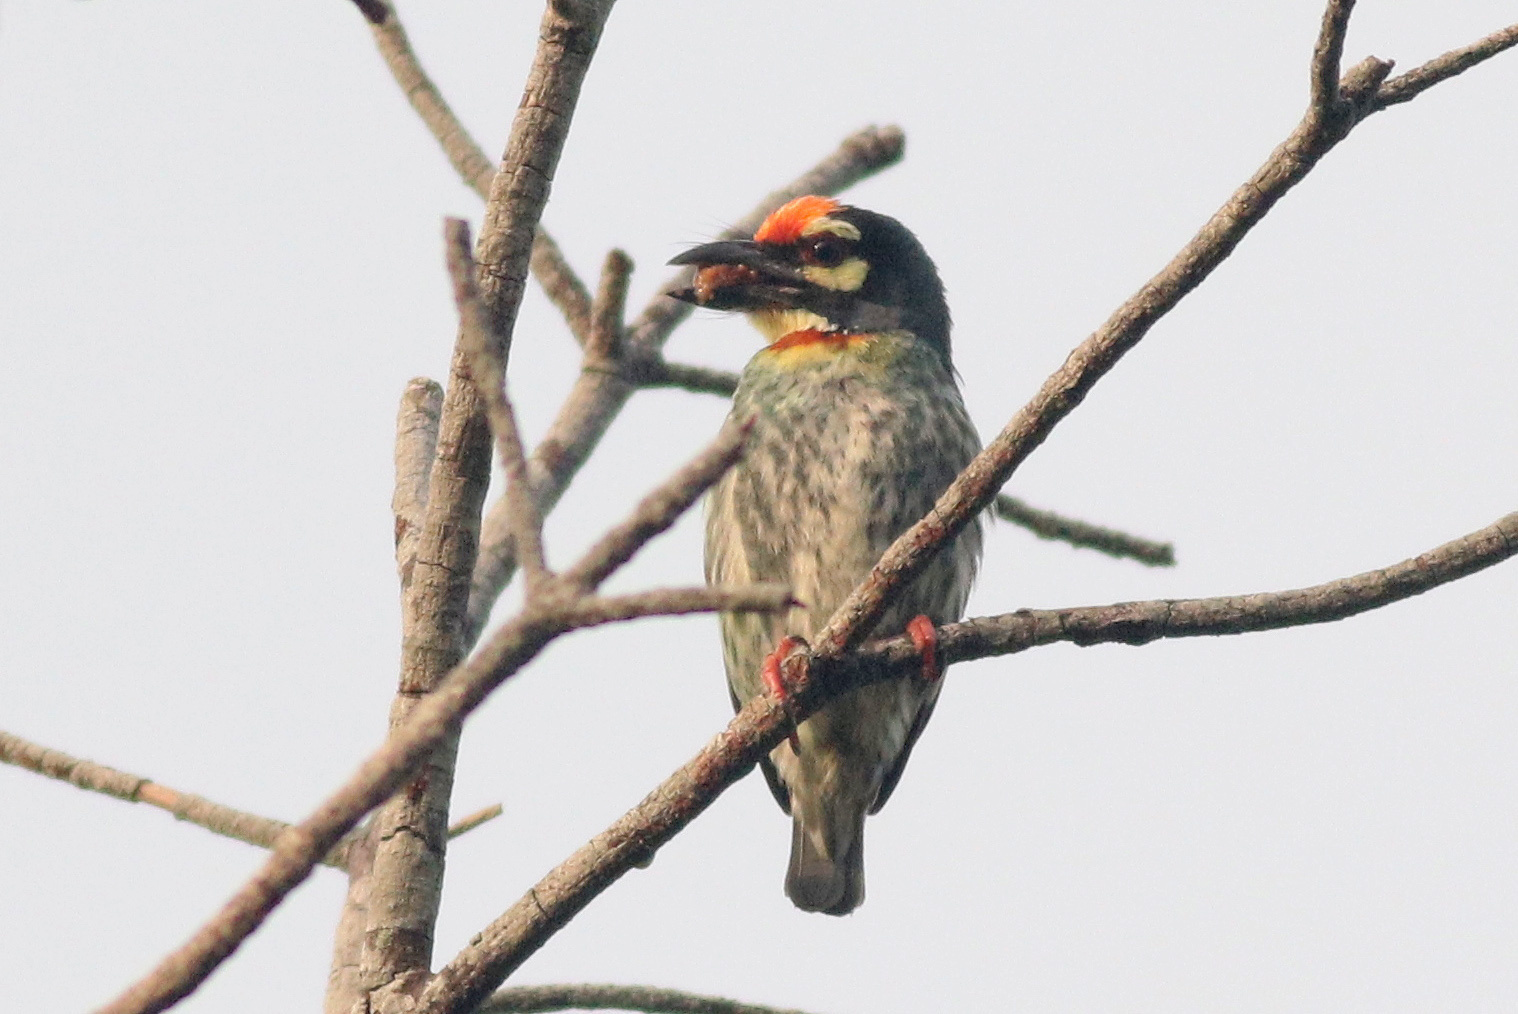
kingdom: Animalia
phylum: Chordata
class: Aves
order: Piciformes
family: Megalaimidae
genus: Psilopogon
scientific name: Psilopogon haemacephalus
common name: Coppersmith barbet
